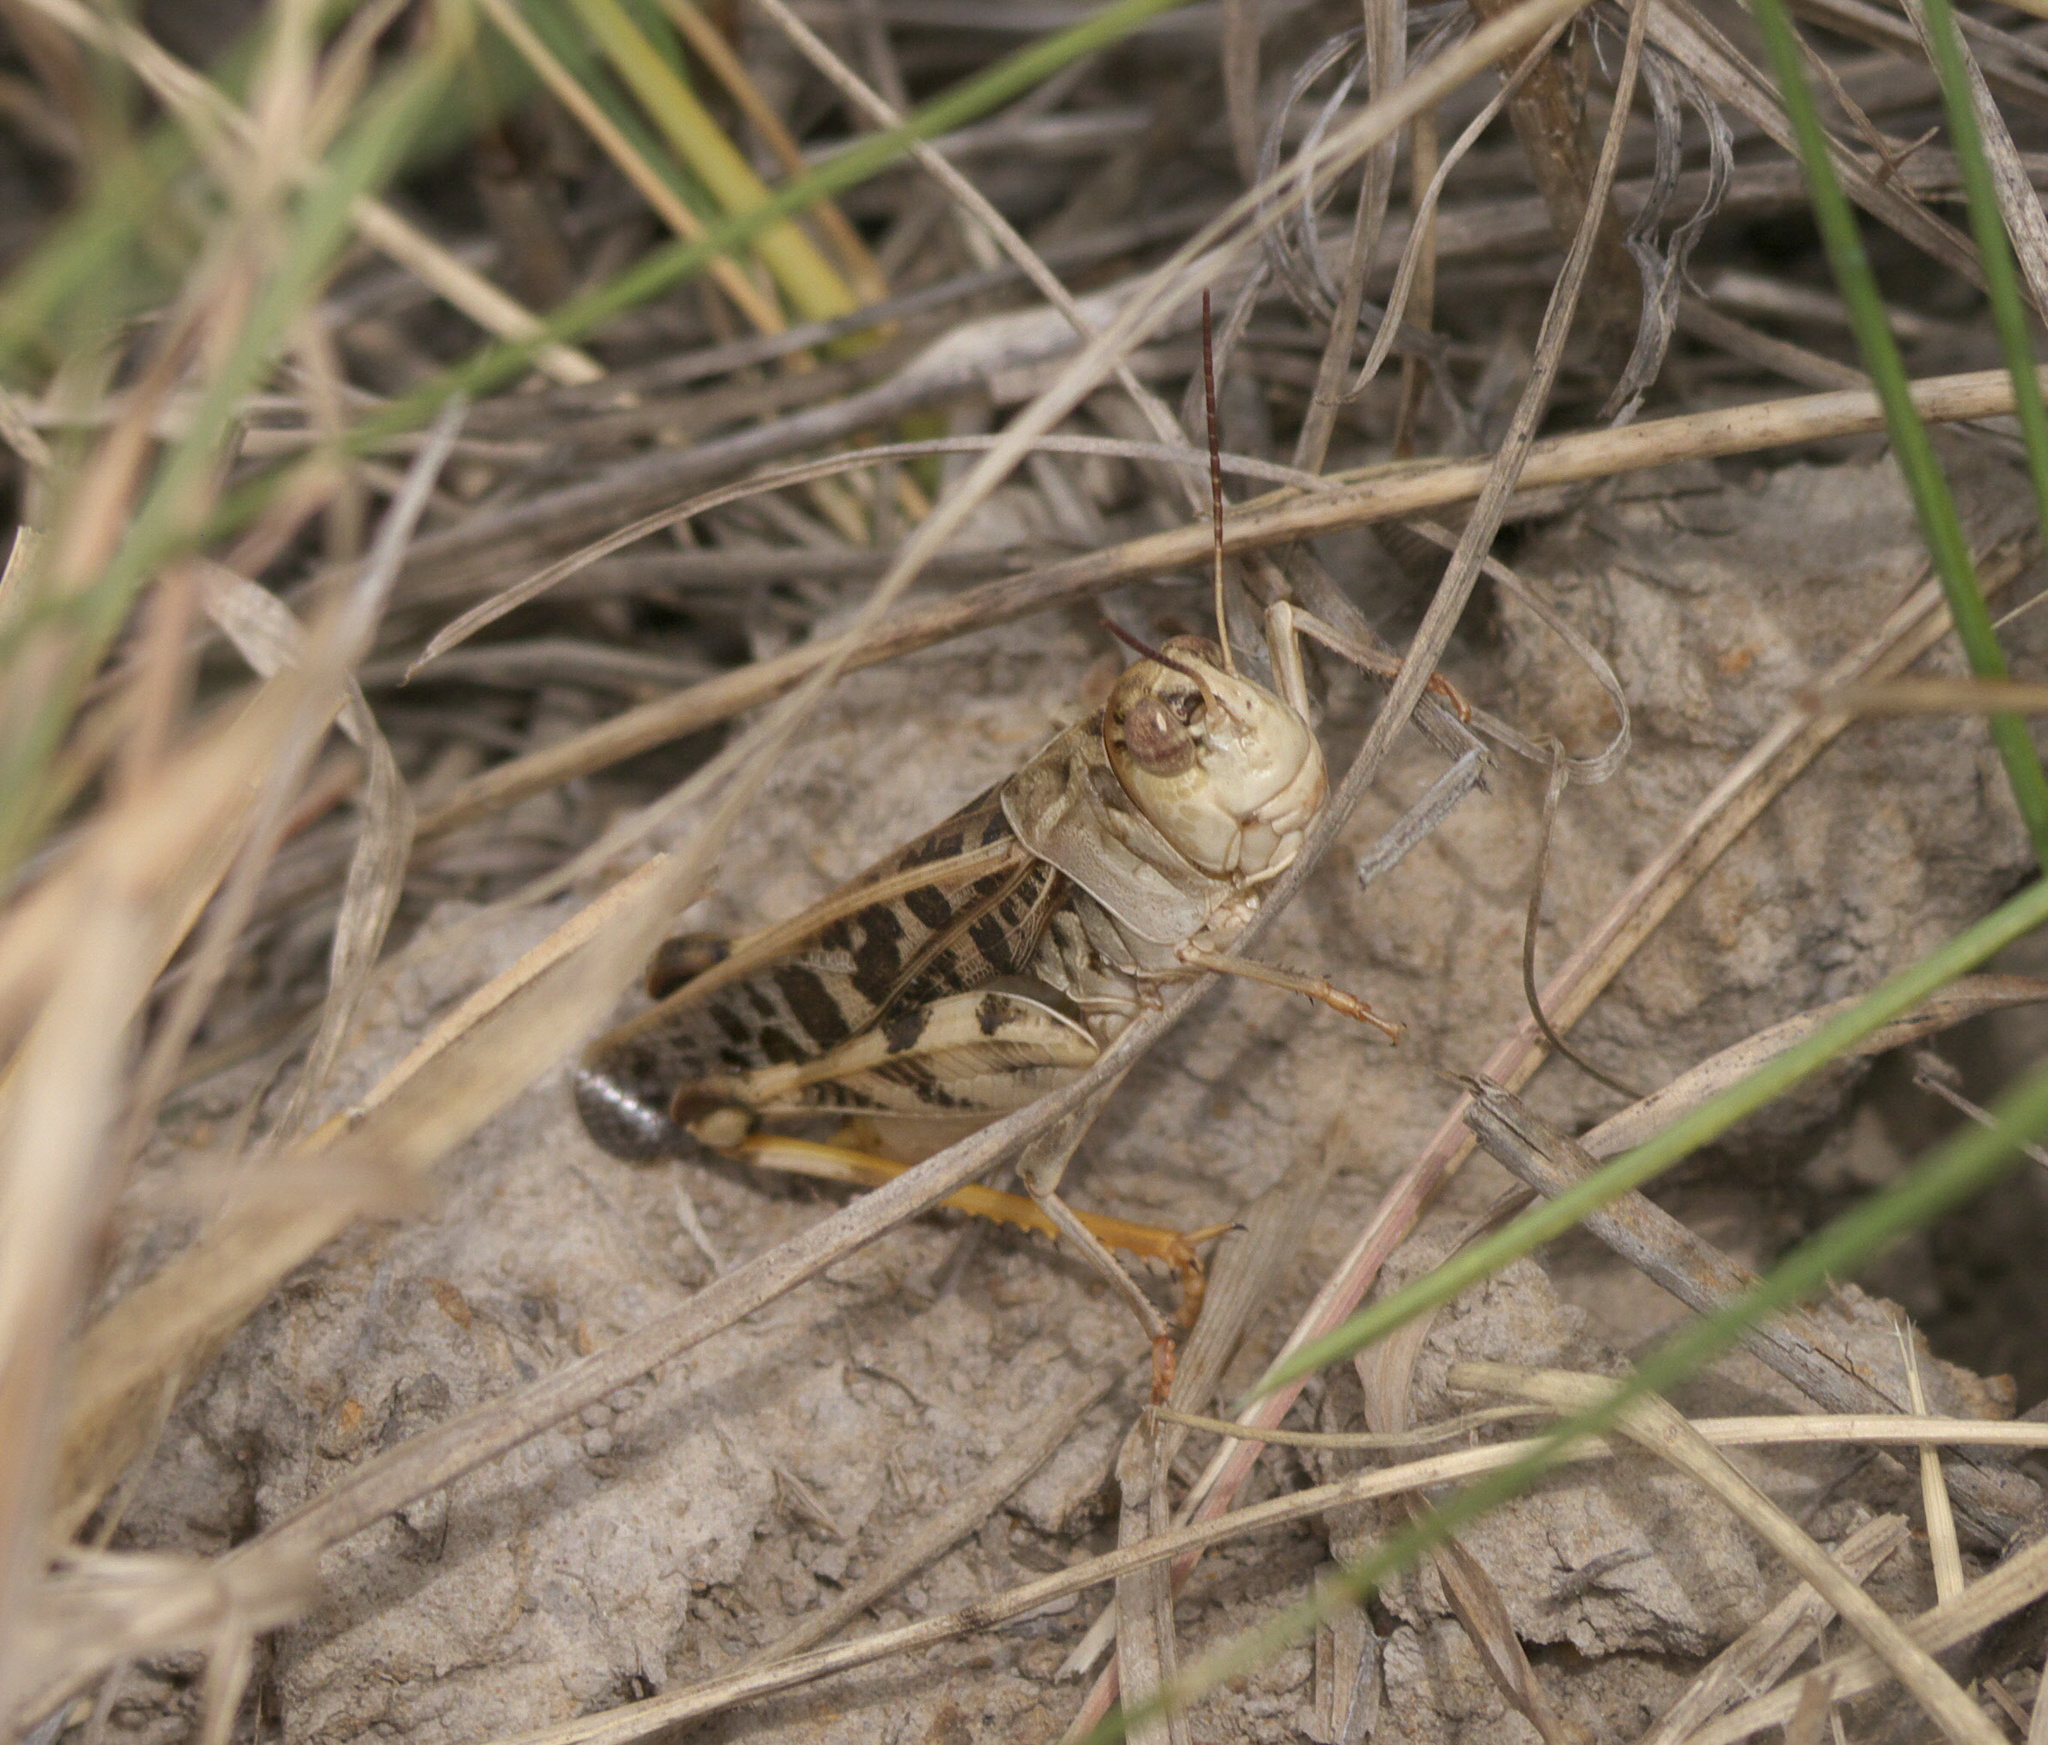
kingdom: Animalia
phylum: Arthropoda
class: Insecta
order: Orthoptera
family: Acrididae
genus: Hippiscus
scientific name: Hippiscus ocelote
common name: Wrinkled grasshopper
